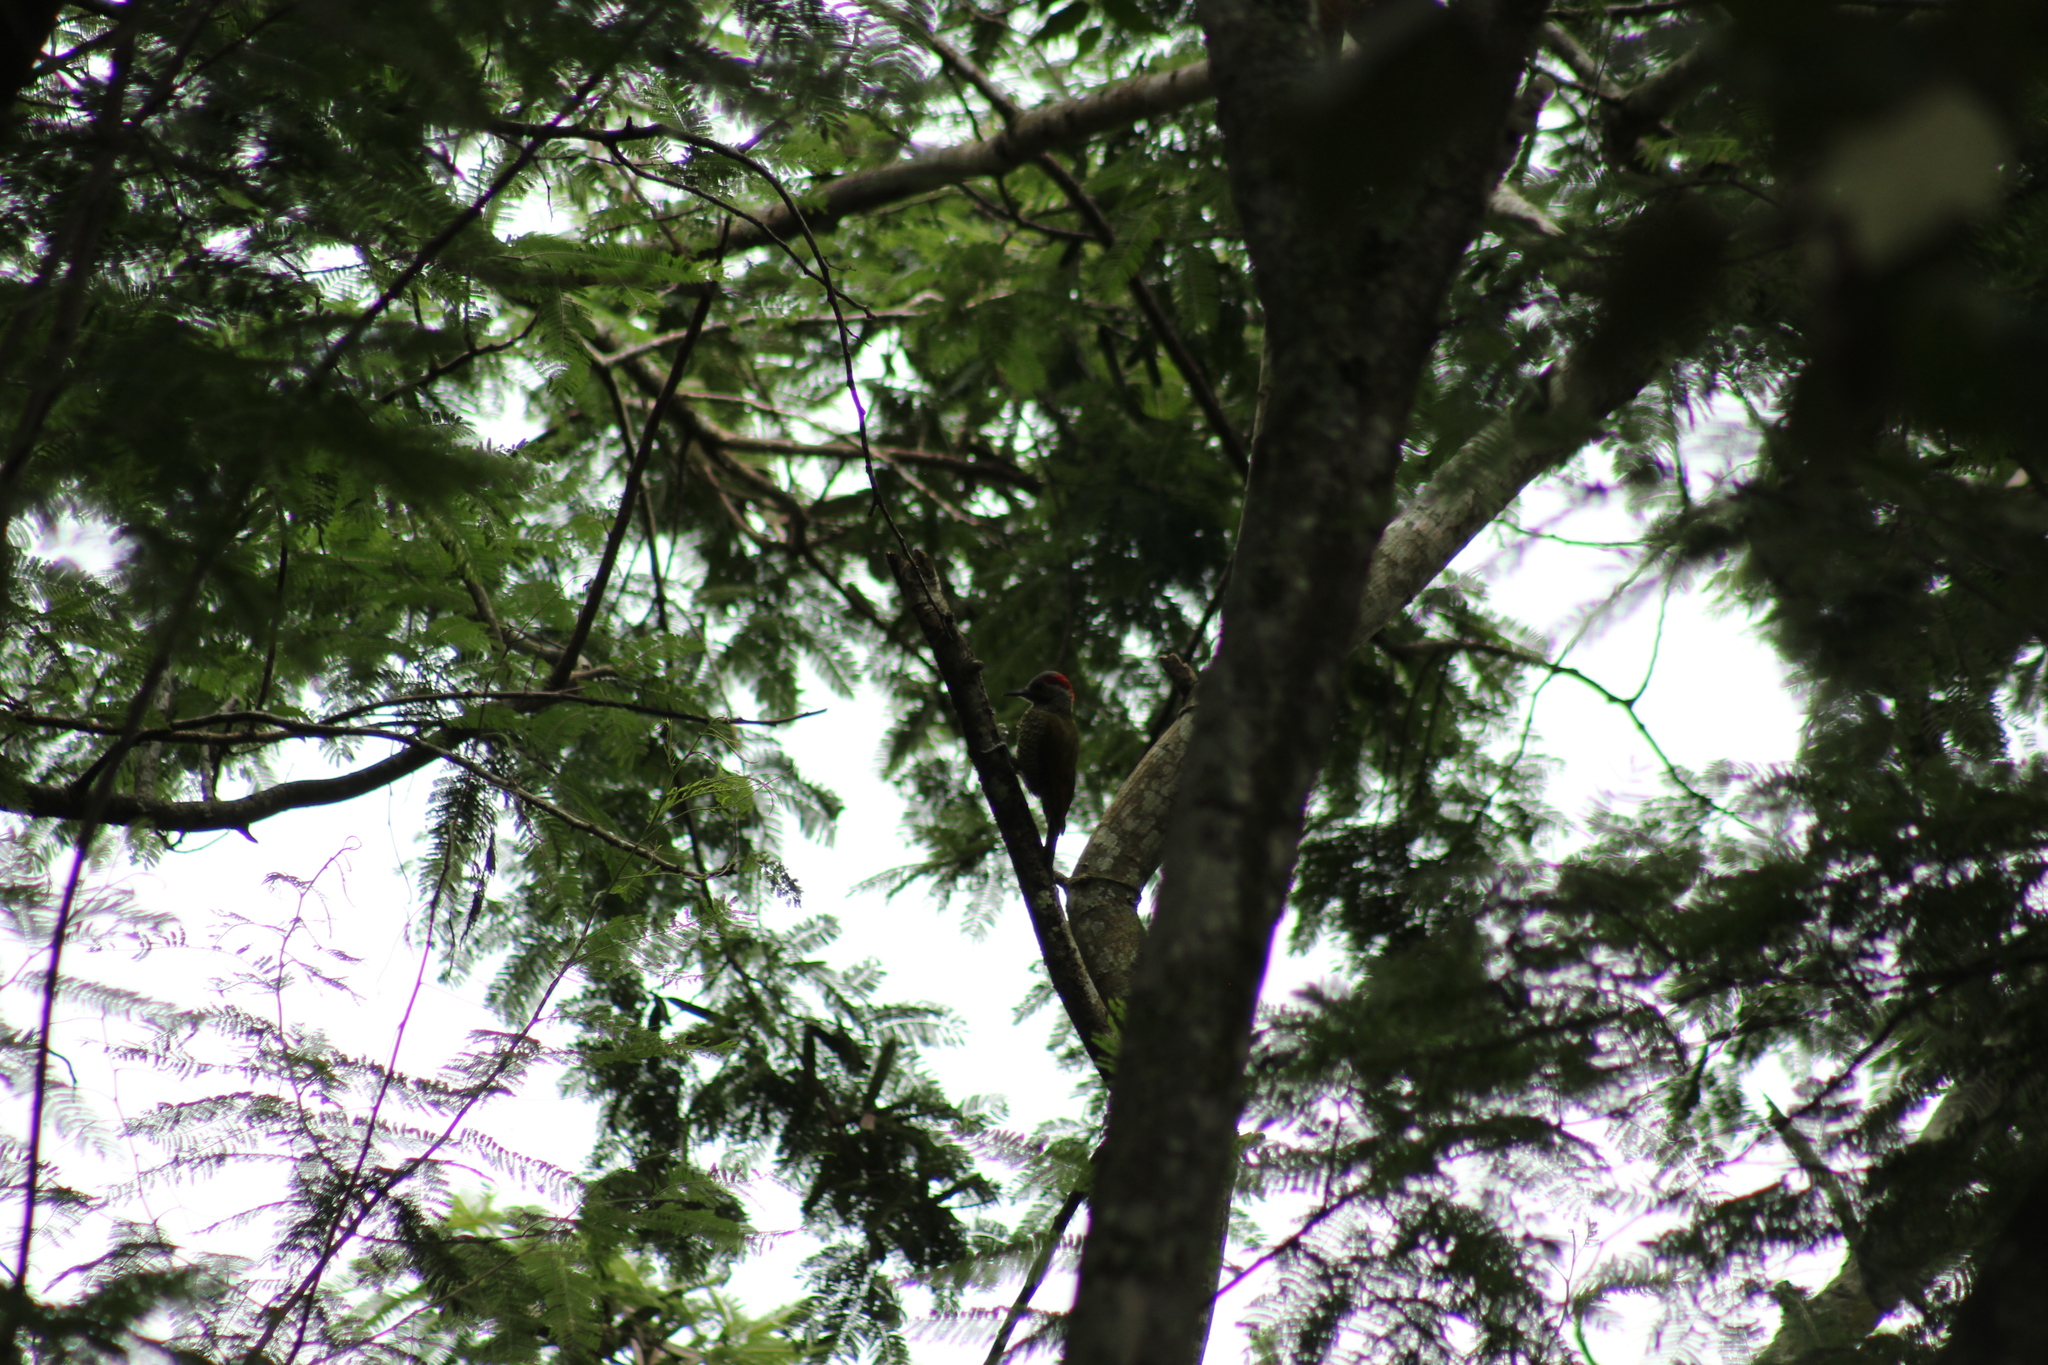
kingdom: Animalia
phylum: Chordata
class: Aves
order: Piciformes
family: Picidae
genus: Colaptes
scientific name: Colaptes rubiginosus
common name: Golden-olive woodpecker
